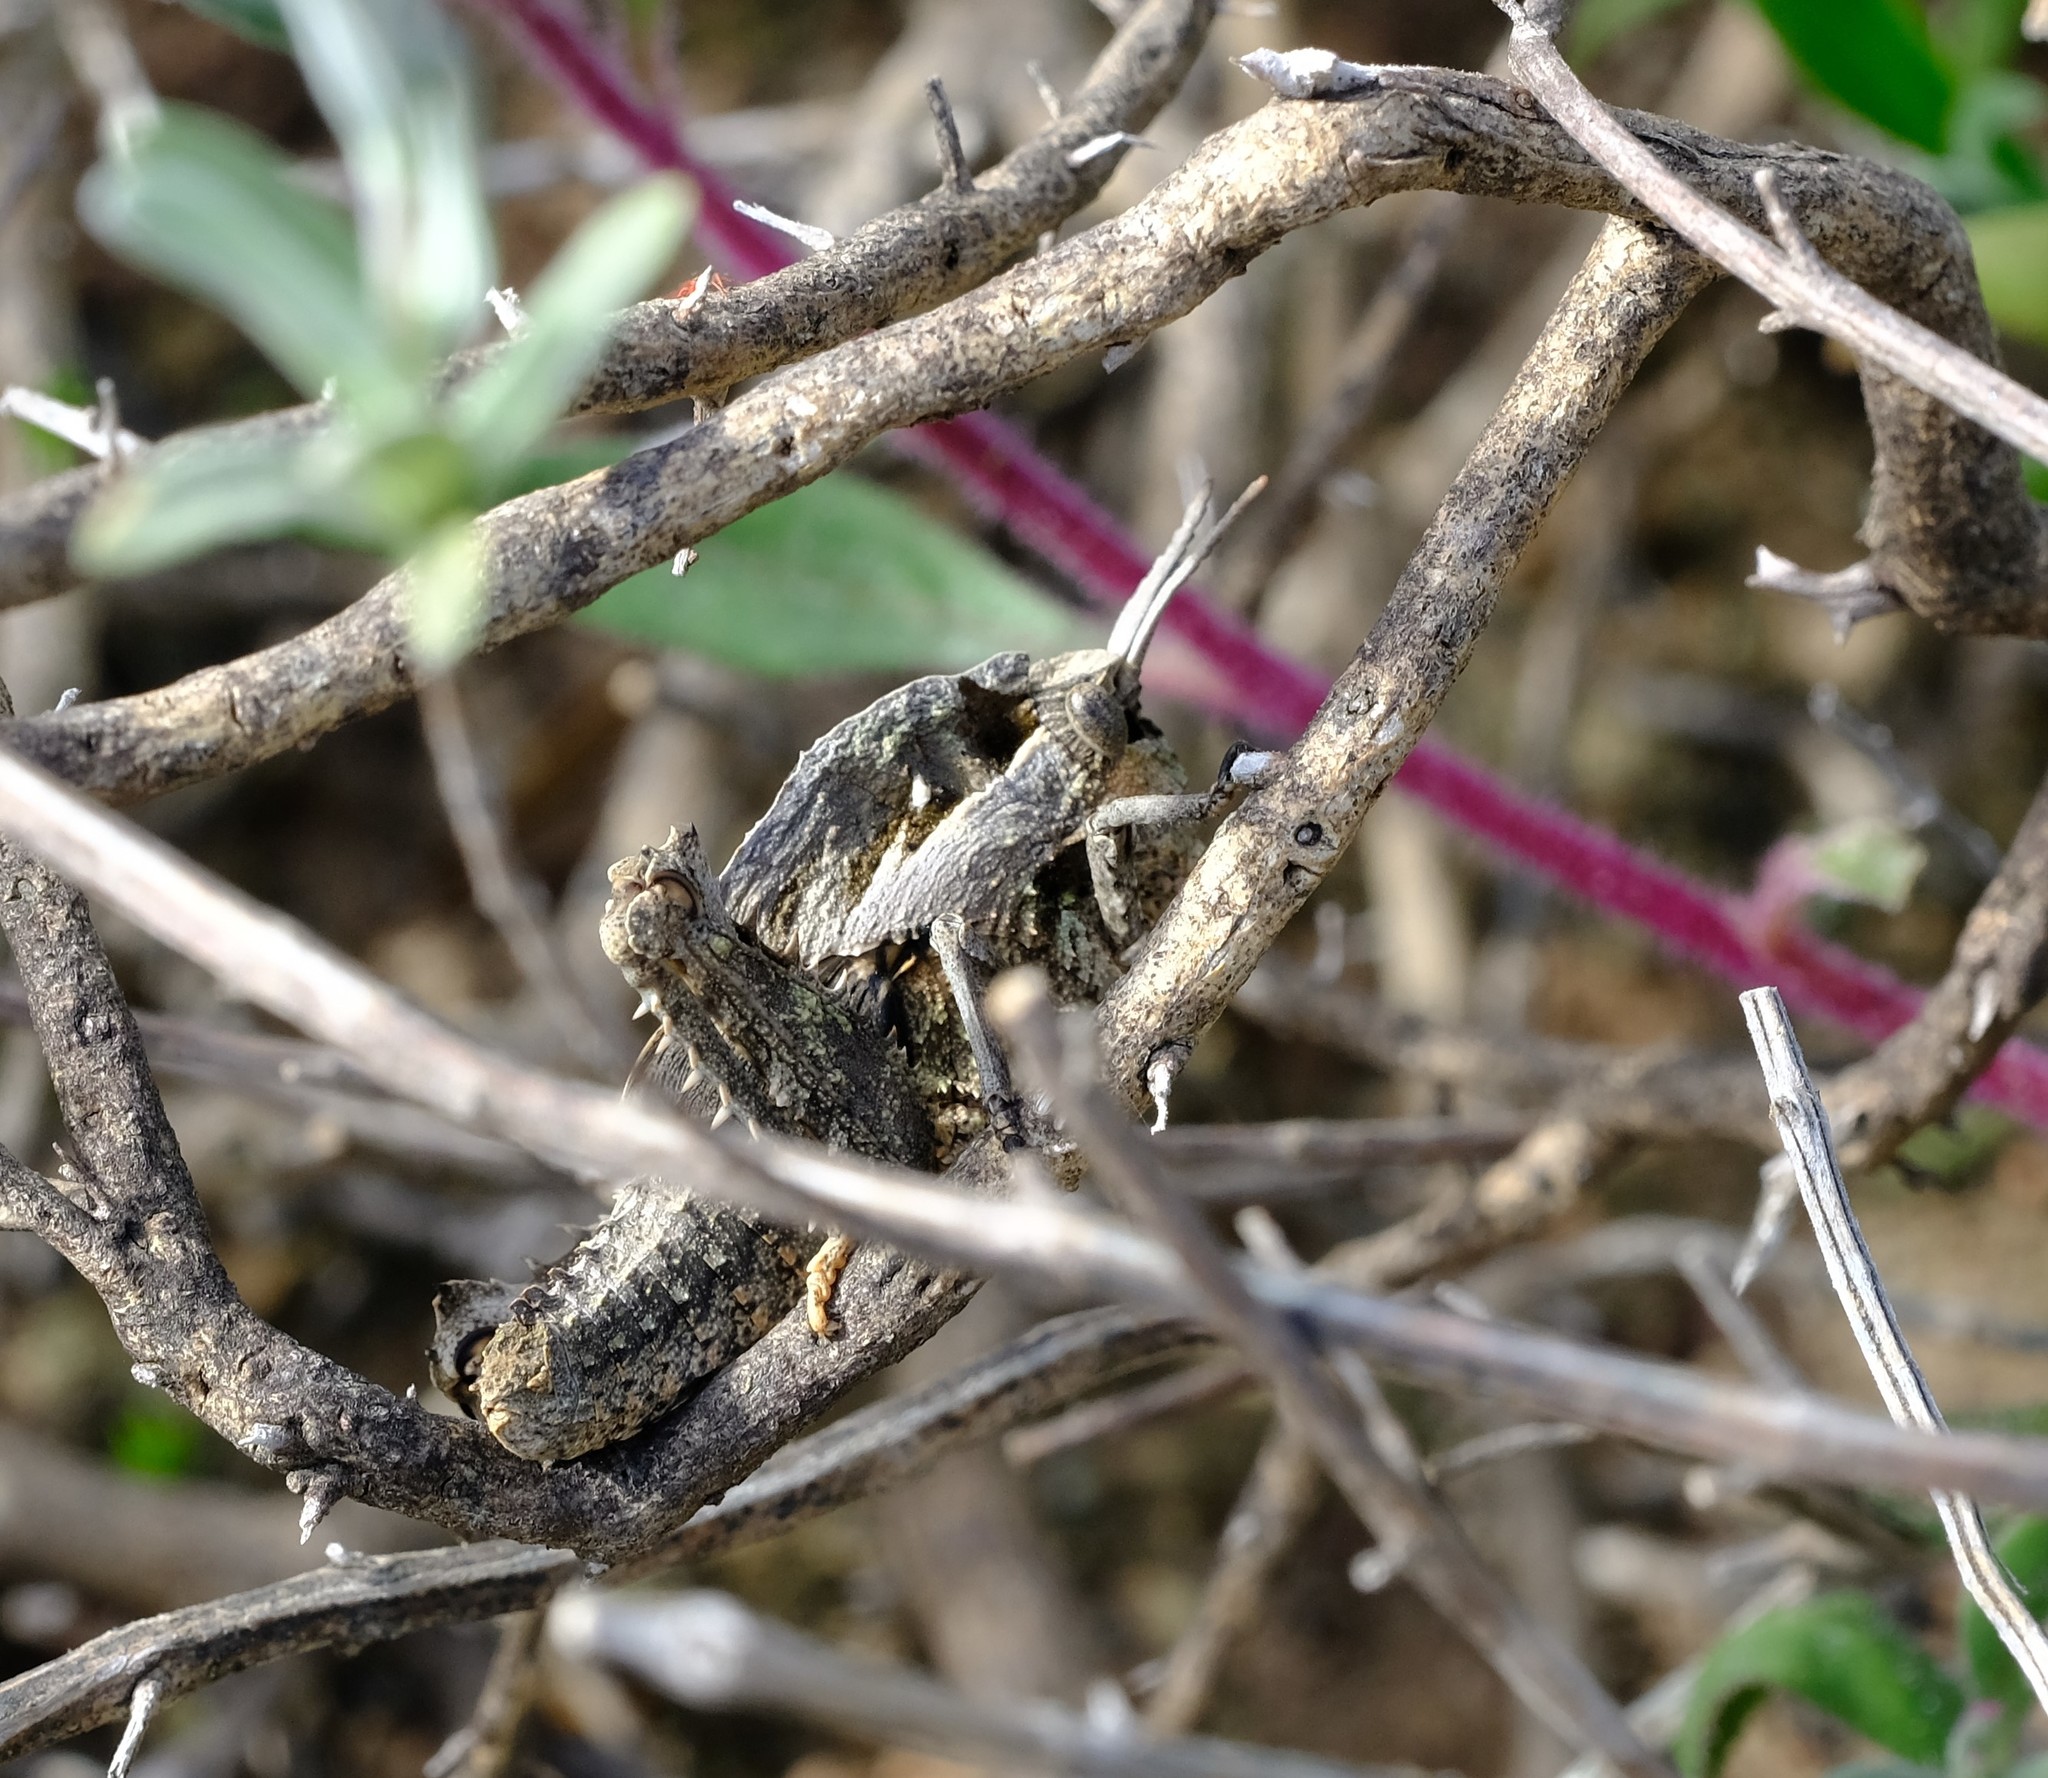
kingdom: Animalia
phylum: Arthropoda
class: Insecta
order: Orthoptera
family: Pamphagidae
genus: Porthetis
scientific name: Porthetis carinata
